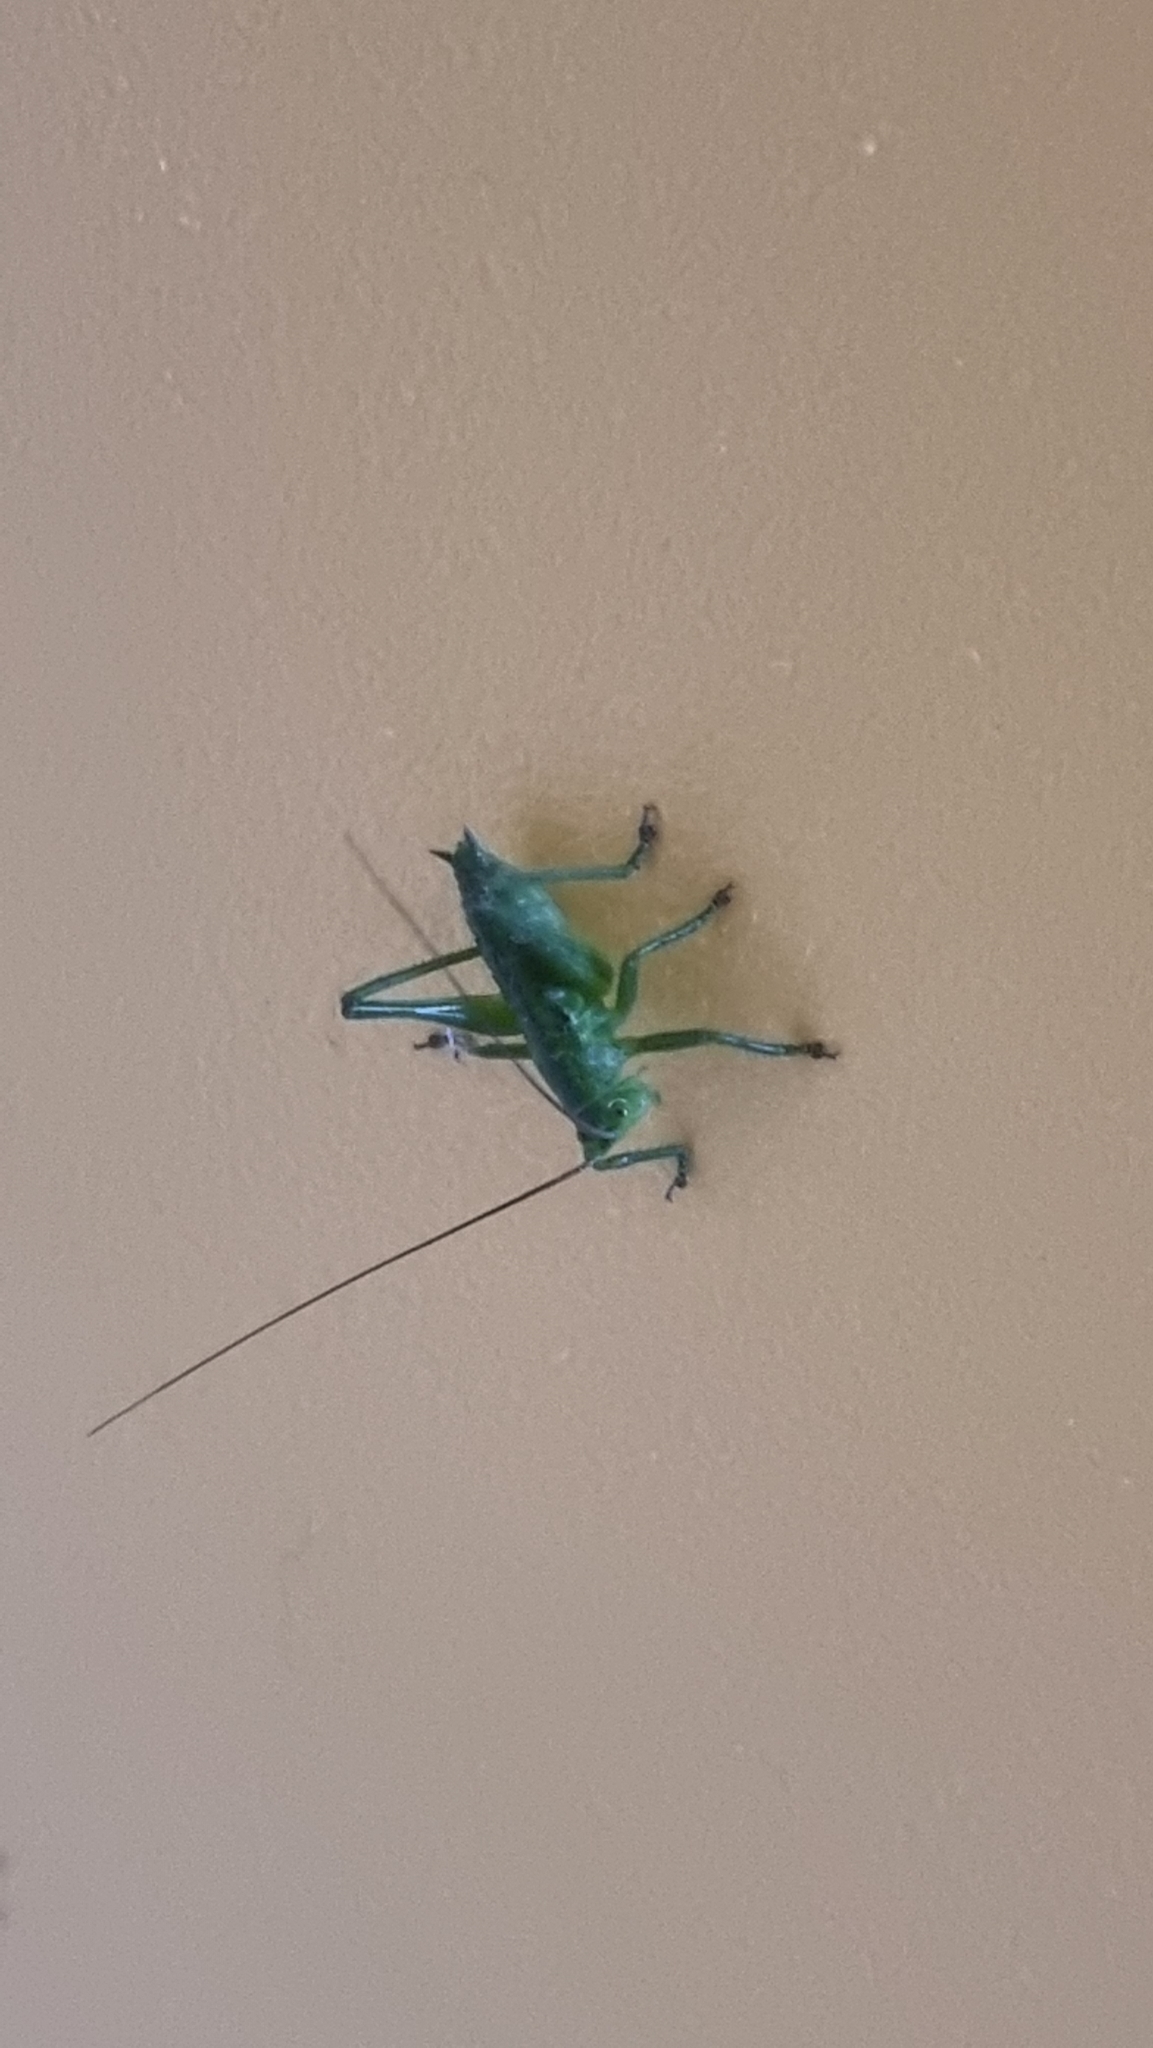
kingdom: Animalia
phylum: Arthropoda
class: Insecta
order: Orthoptera
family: Tettigoniidae
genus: Tettigonia
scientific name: Tettigonia viridissima
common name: Great green bush-cricket
